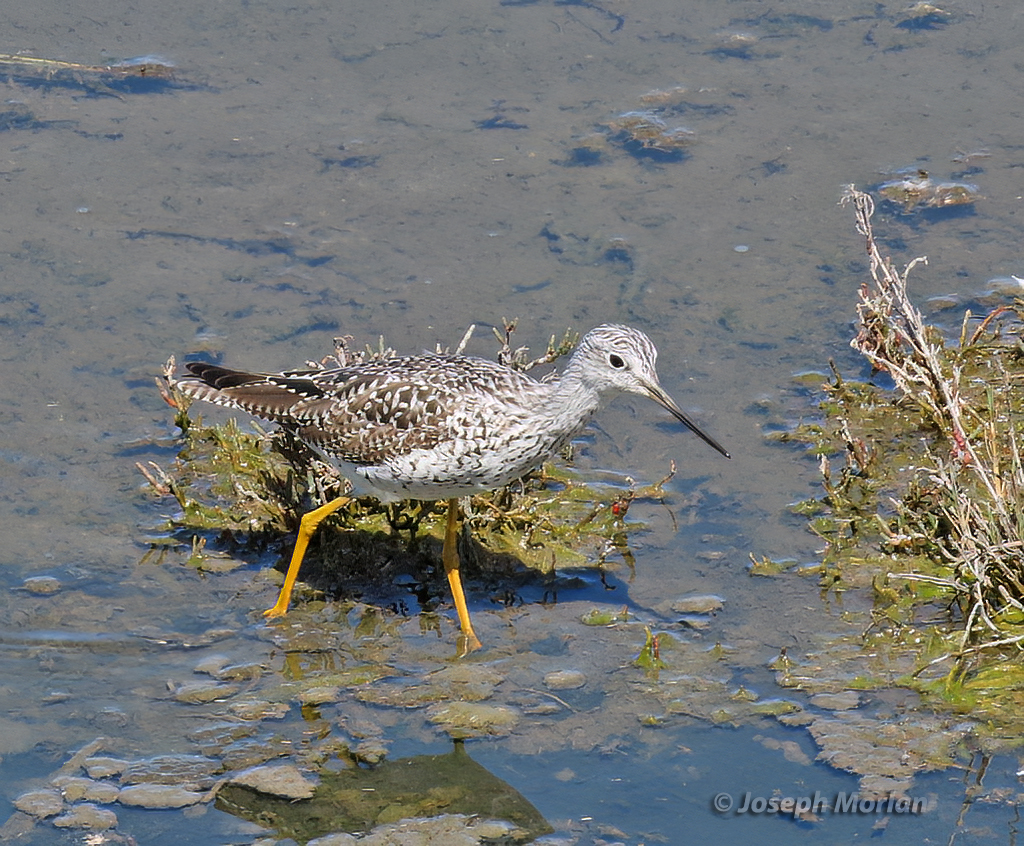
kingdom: Animalia
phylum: Chordata
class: Aves
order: Charadriiformes
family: Scolopacidae
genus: Tringa
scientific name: Tringa melanoleuca
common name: Greater yellowlegs
